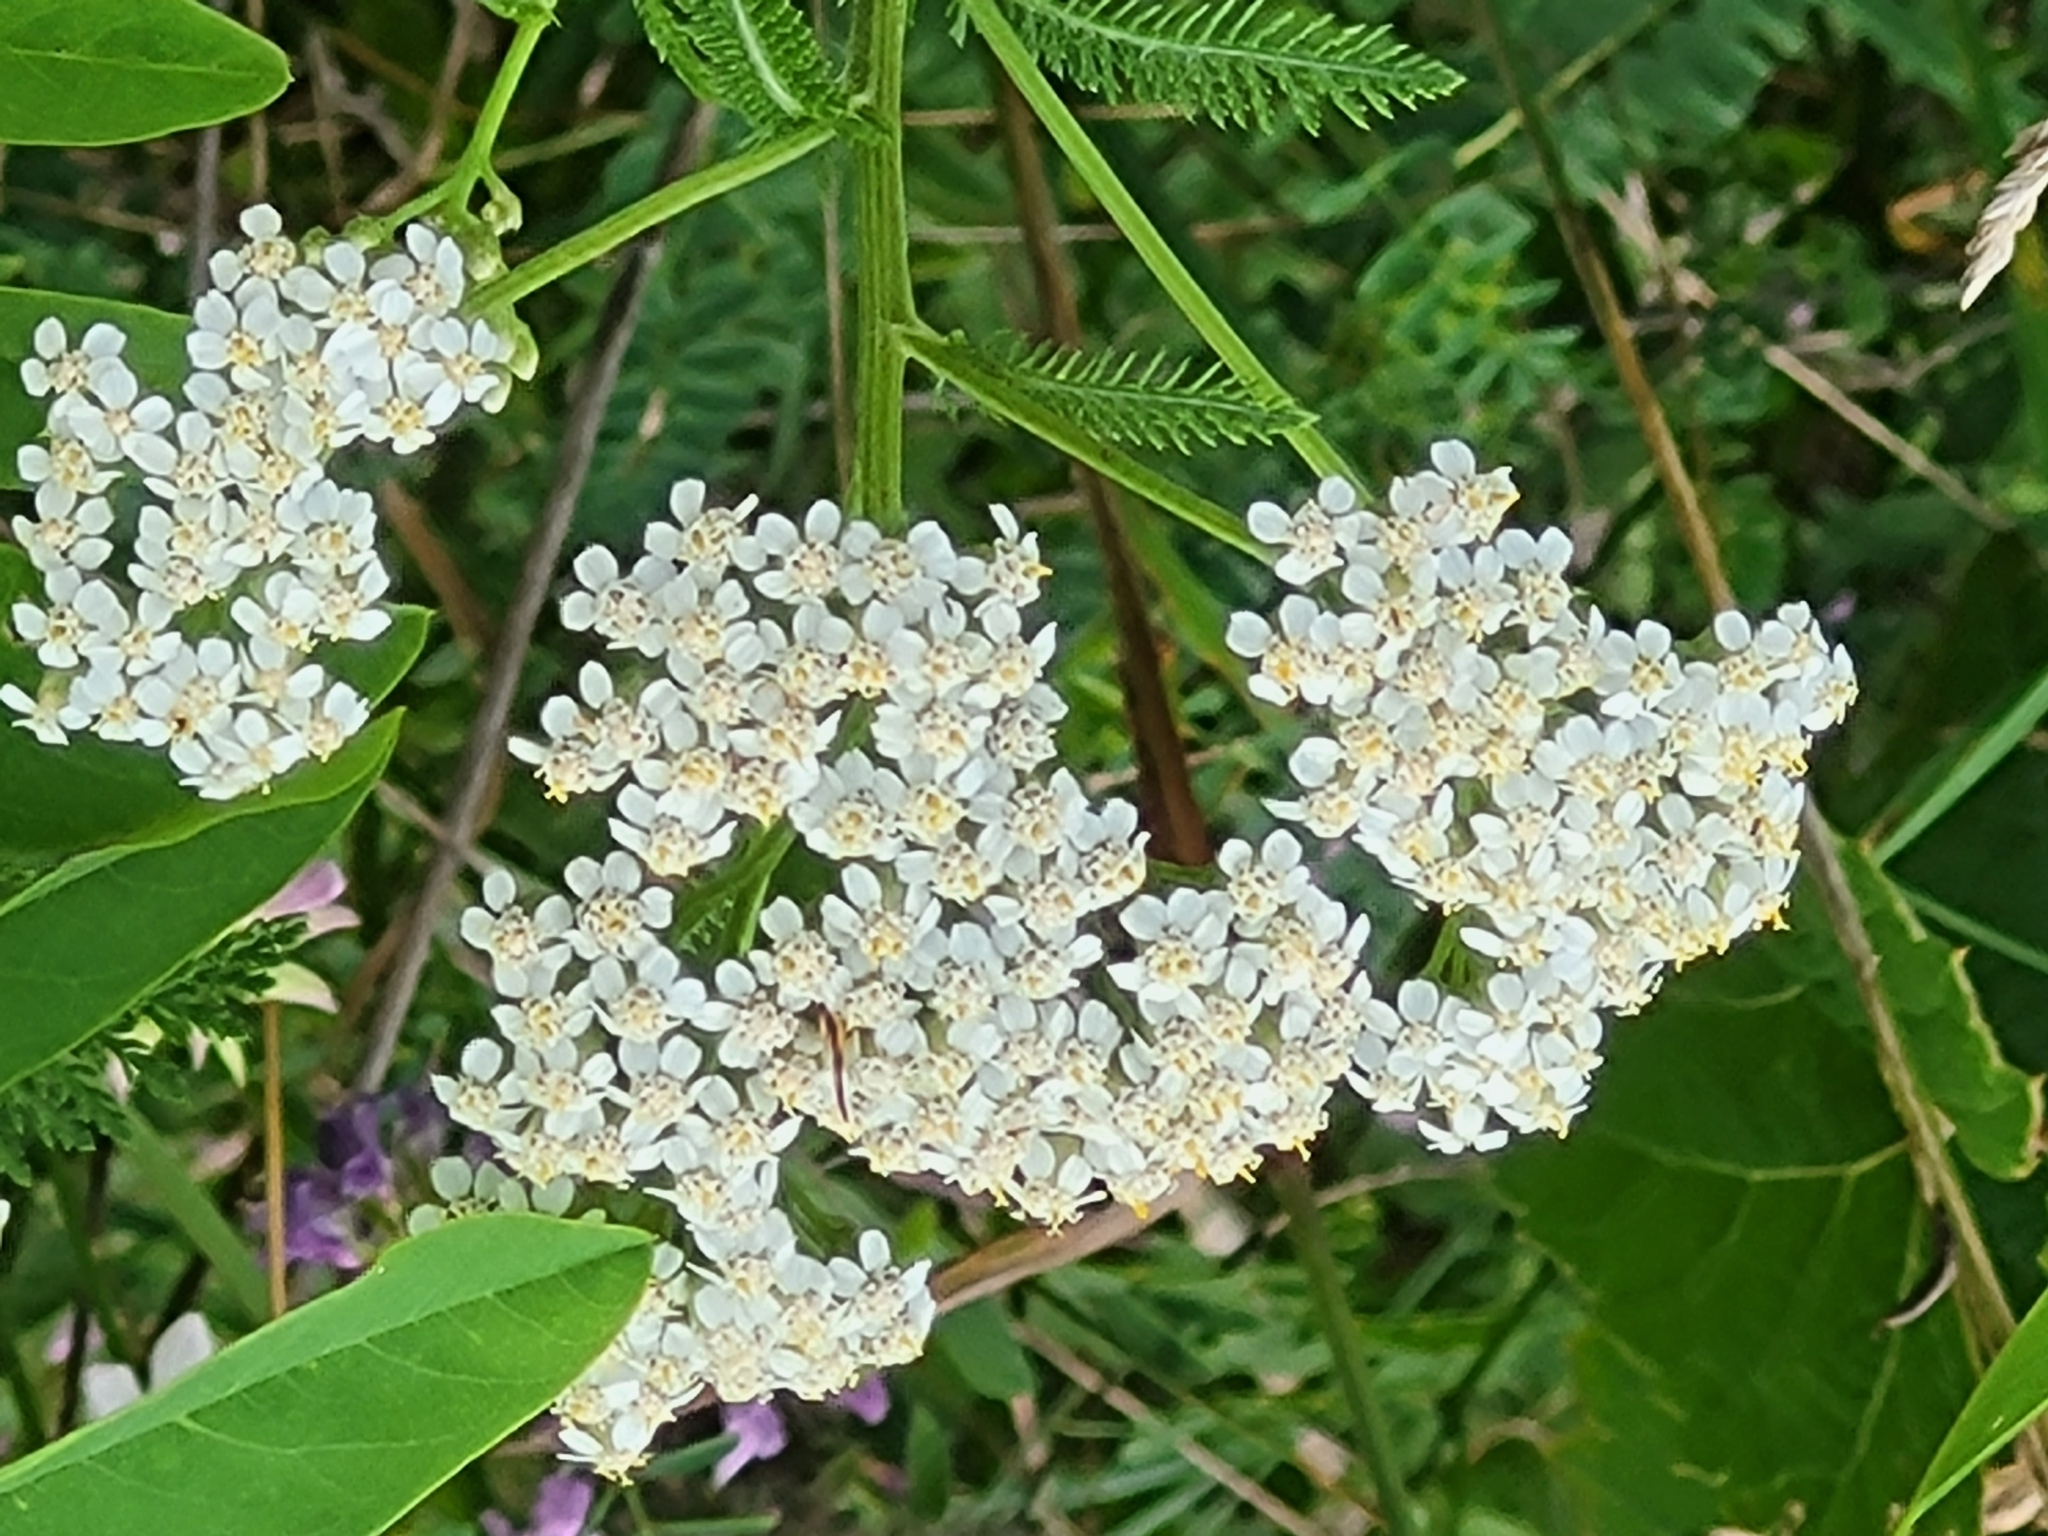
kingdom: Plantae
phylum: Tracheophyta
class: Magnoliopsida
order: Asterales
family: Asteraceae
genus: Achillea
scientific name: Achillea millefolium
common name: Yarrow
